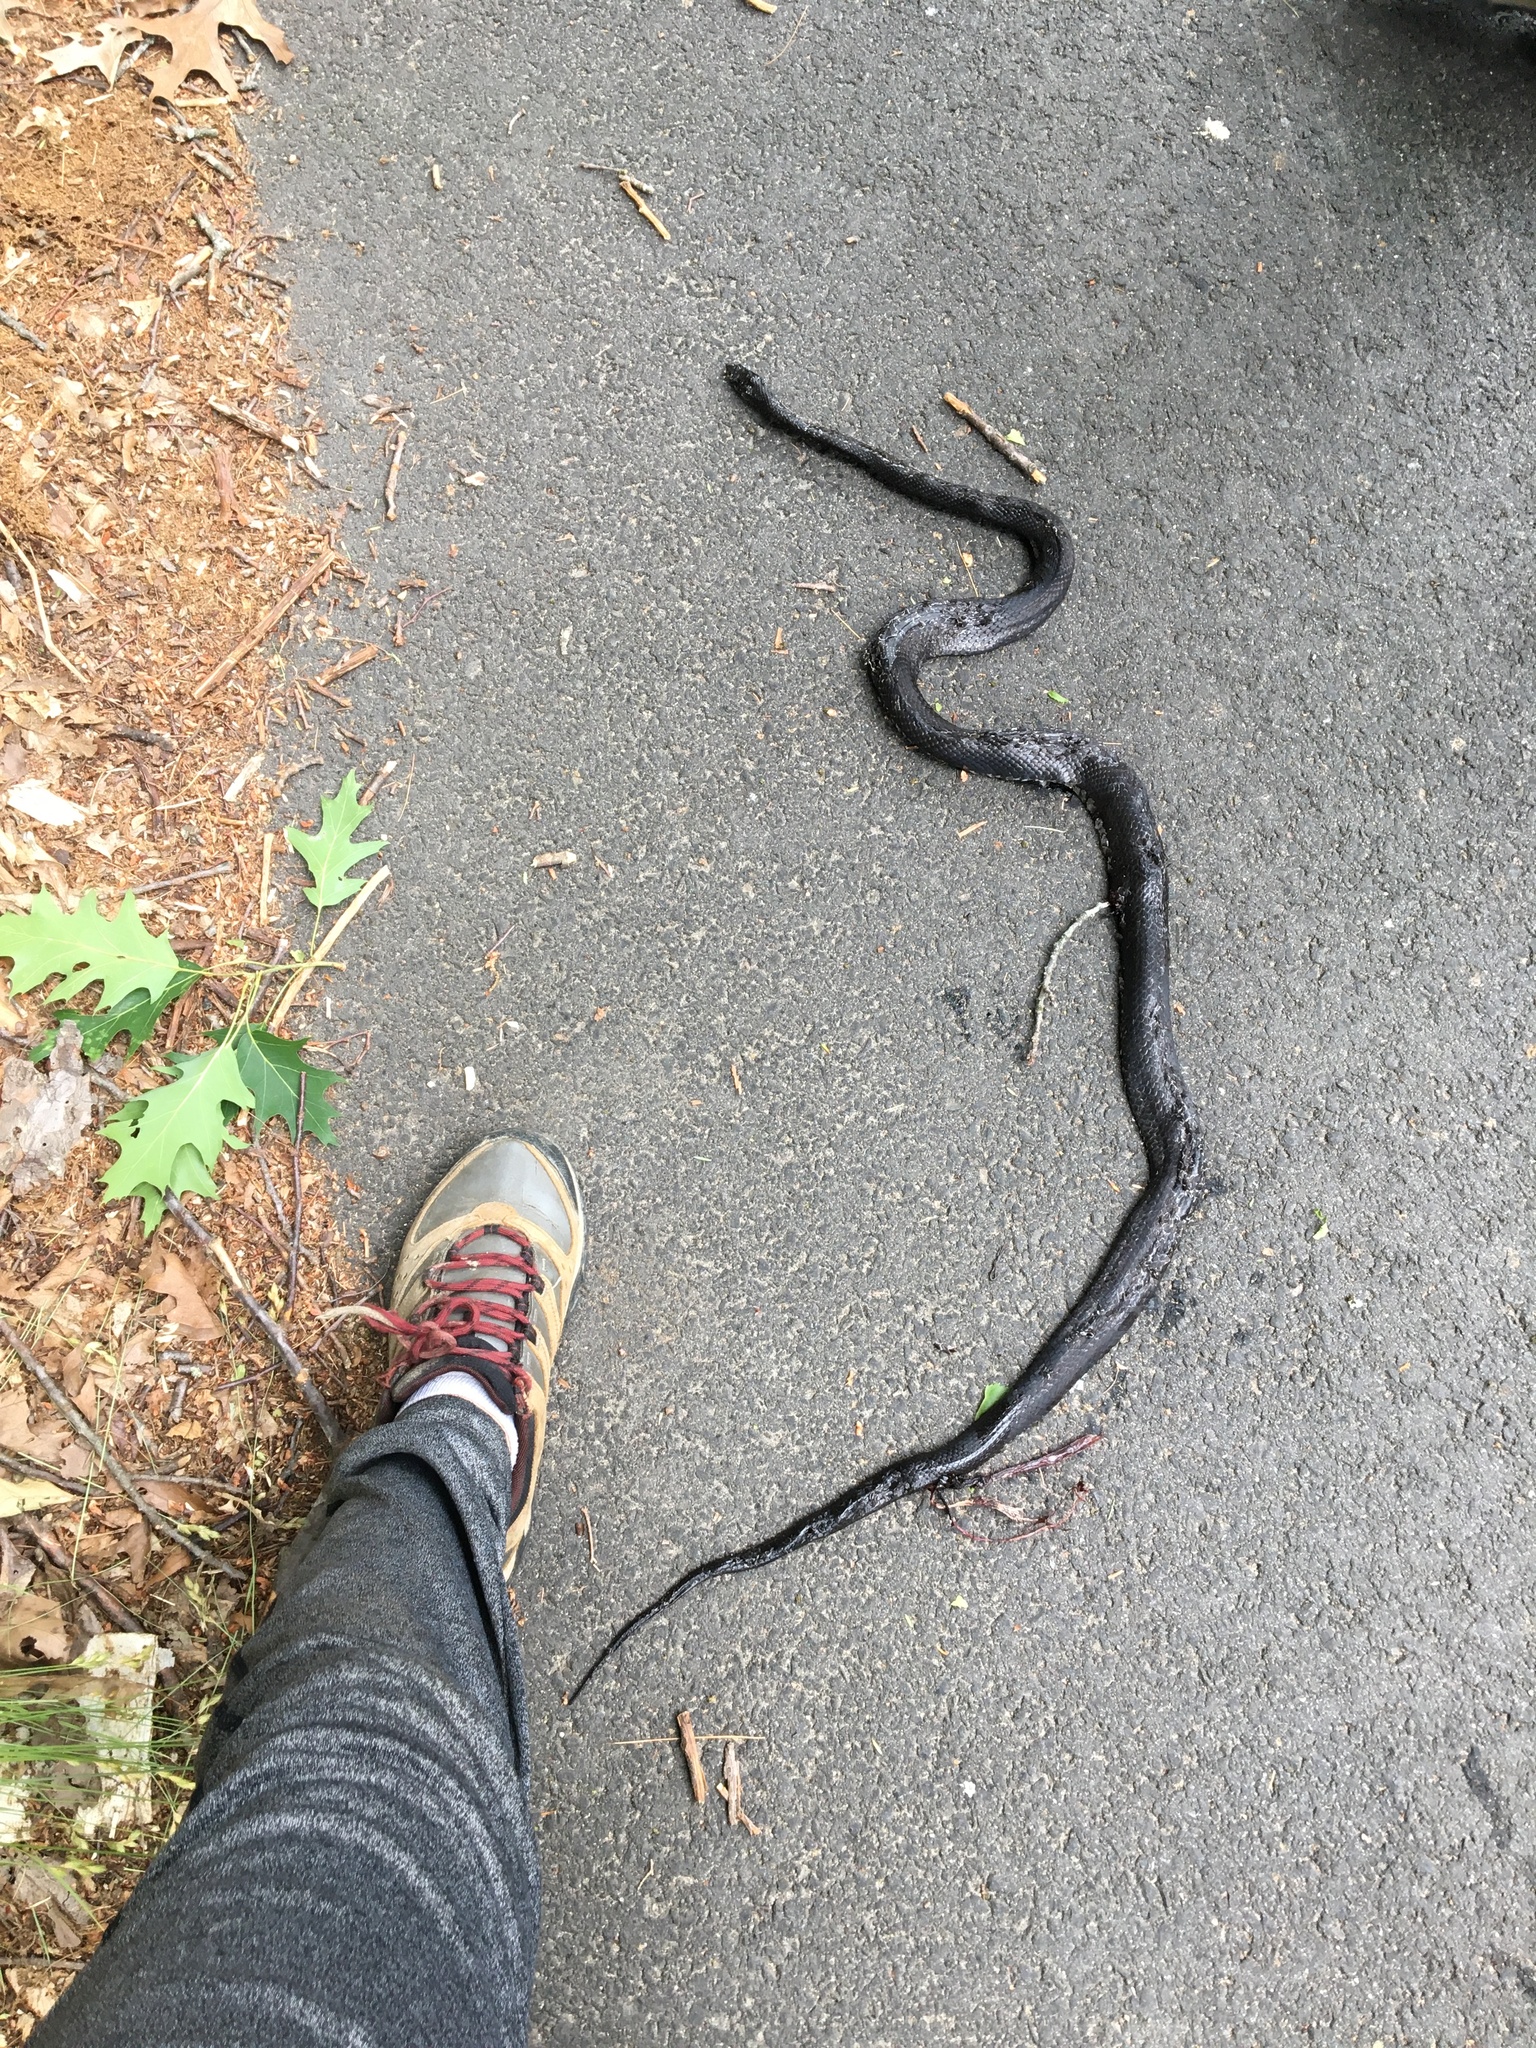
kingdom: Animalia
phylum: Chordata
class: Squamata
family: Colubridae
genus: Pantherophis
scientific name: Pantherophis alleghaniensis
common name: Eastern rat snake
